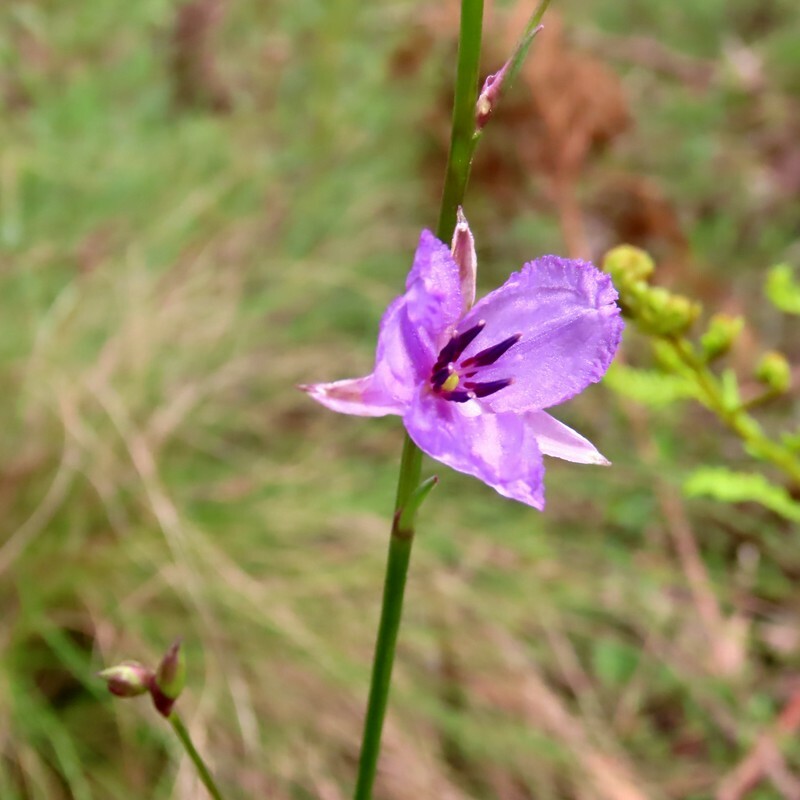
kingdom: Plantae
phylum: Tracheophyta
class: Liliopsida
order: Asparagales
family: Asparagaceae
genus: Arthropodium
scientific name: Arthropodium strictum
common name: Chocolate-lily
